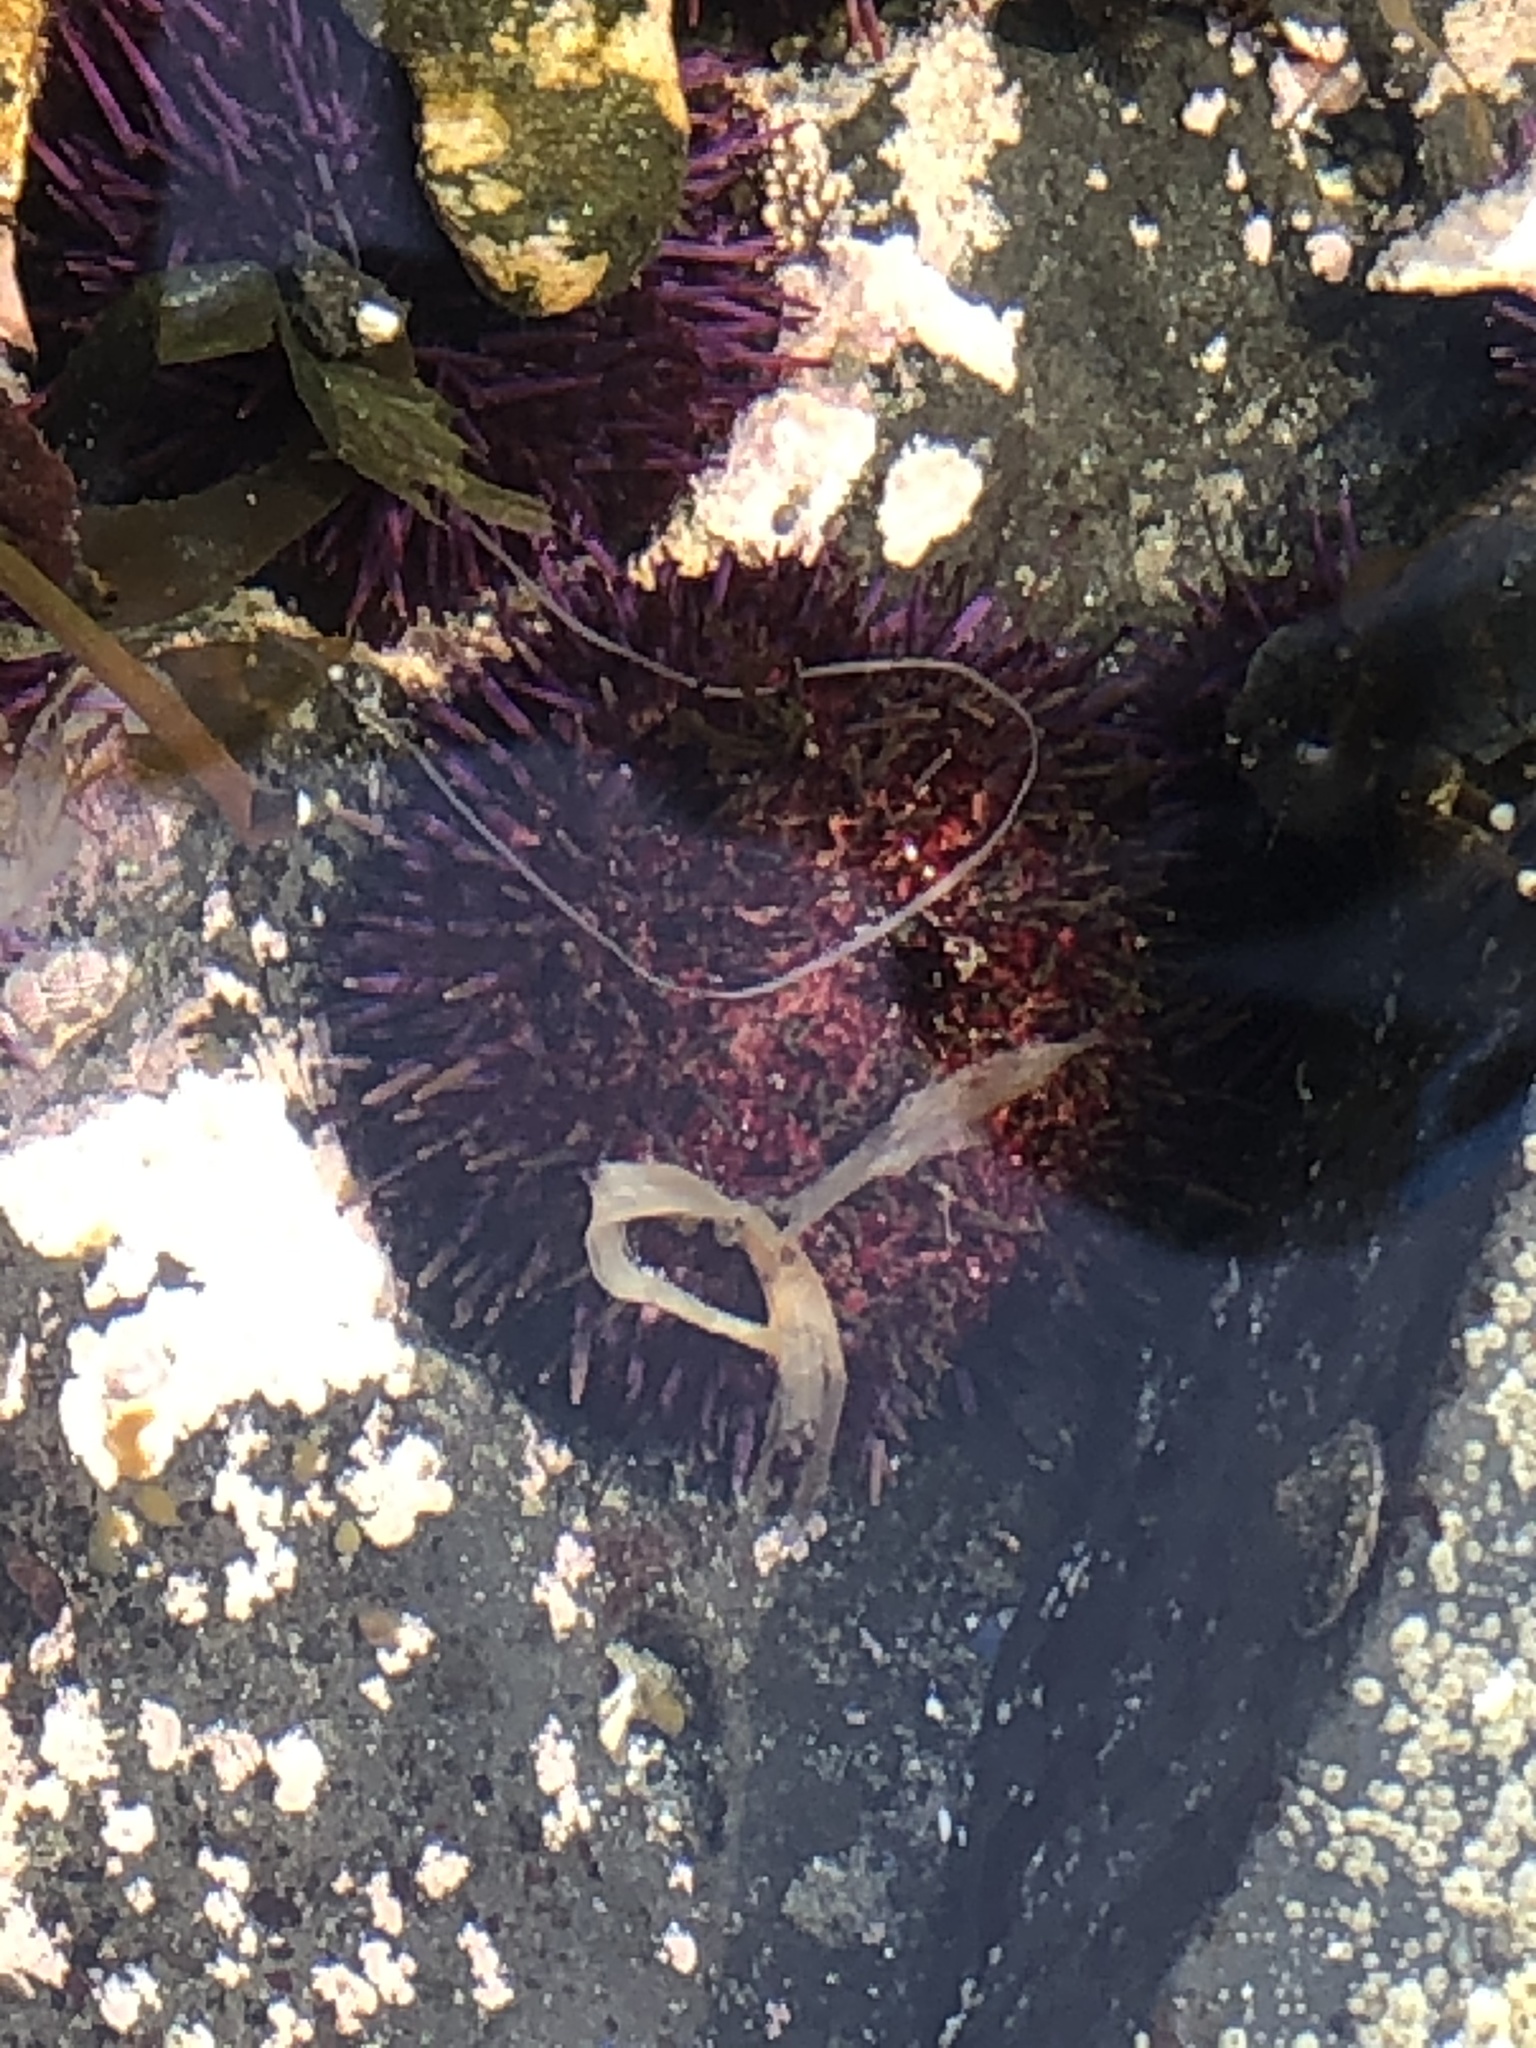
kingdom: Animalia
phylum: Echinodermata
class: Echinoidea
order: Camarodonta
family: Strongylocentrotidae
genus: Strongylocentrotus
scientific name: Strongylocentrotus purpuratus
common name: Purple sea urchin
